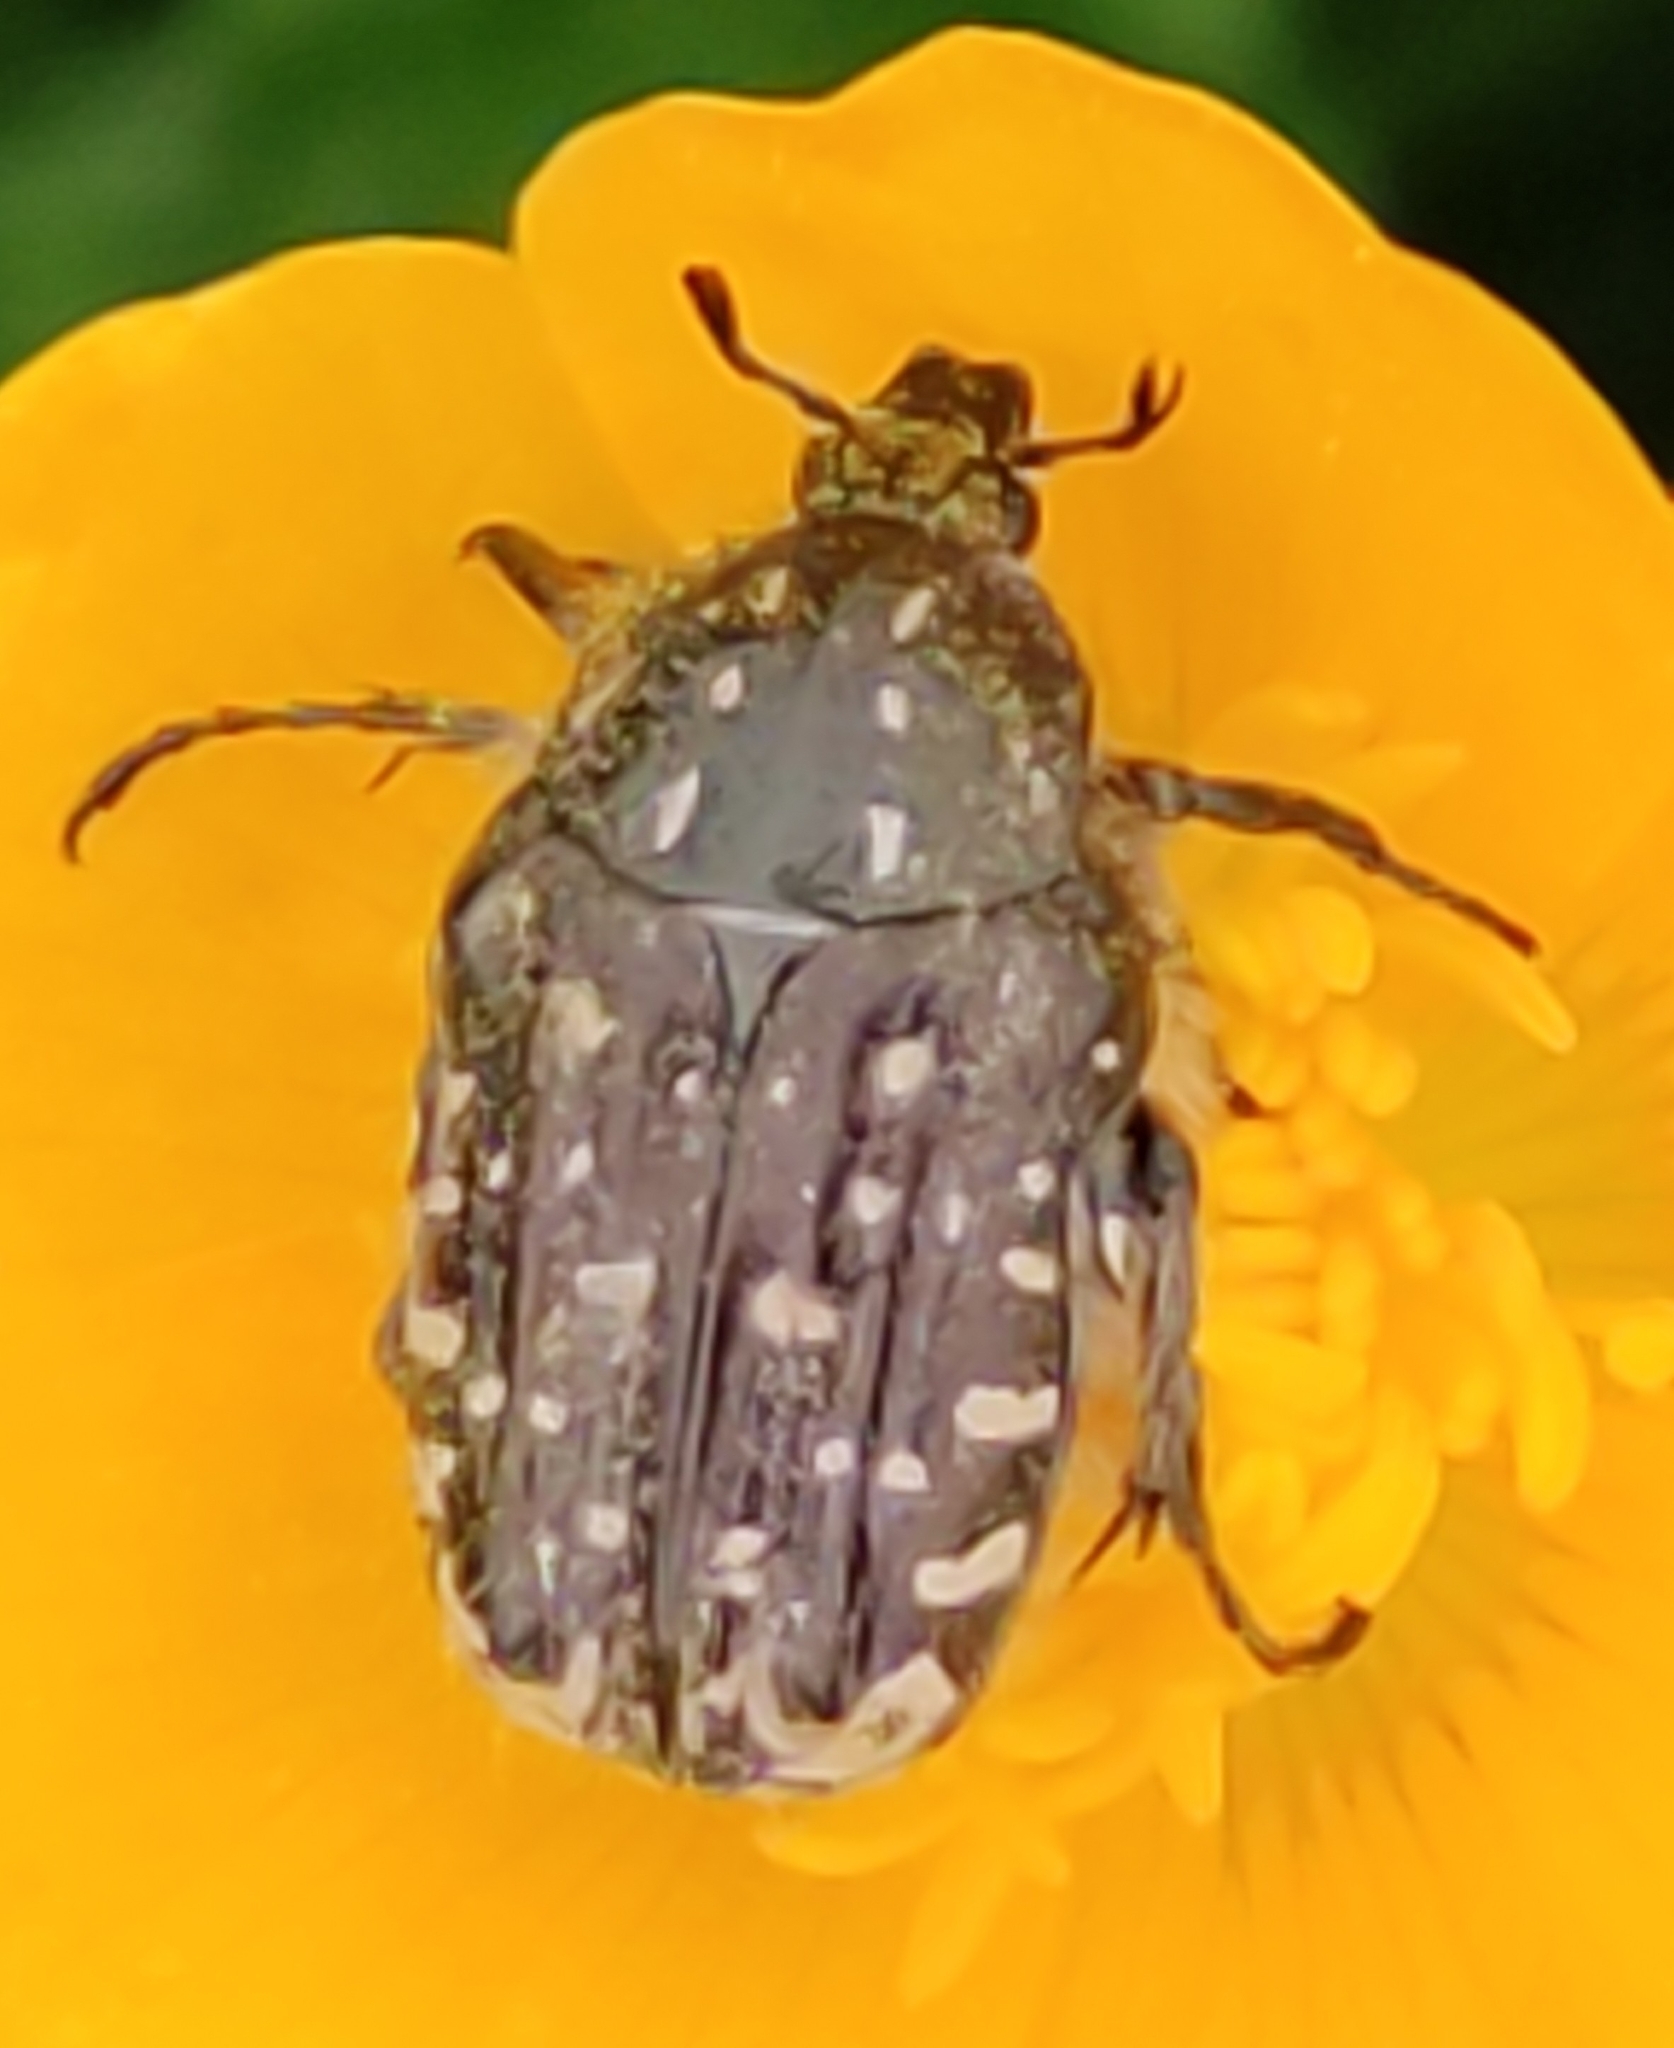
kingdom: Animalia
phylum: Arthropoda
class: Insecta
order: Coleoptera
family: Scarabaeidae
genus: Oxythyrea
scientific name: Oxythyrea funesta
